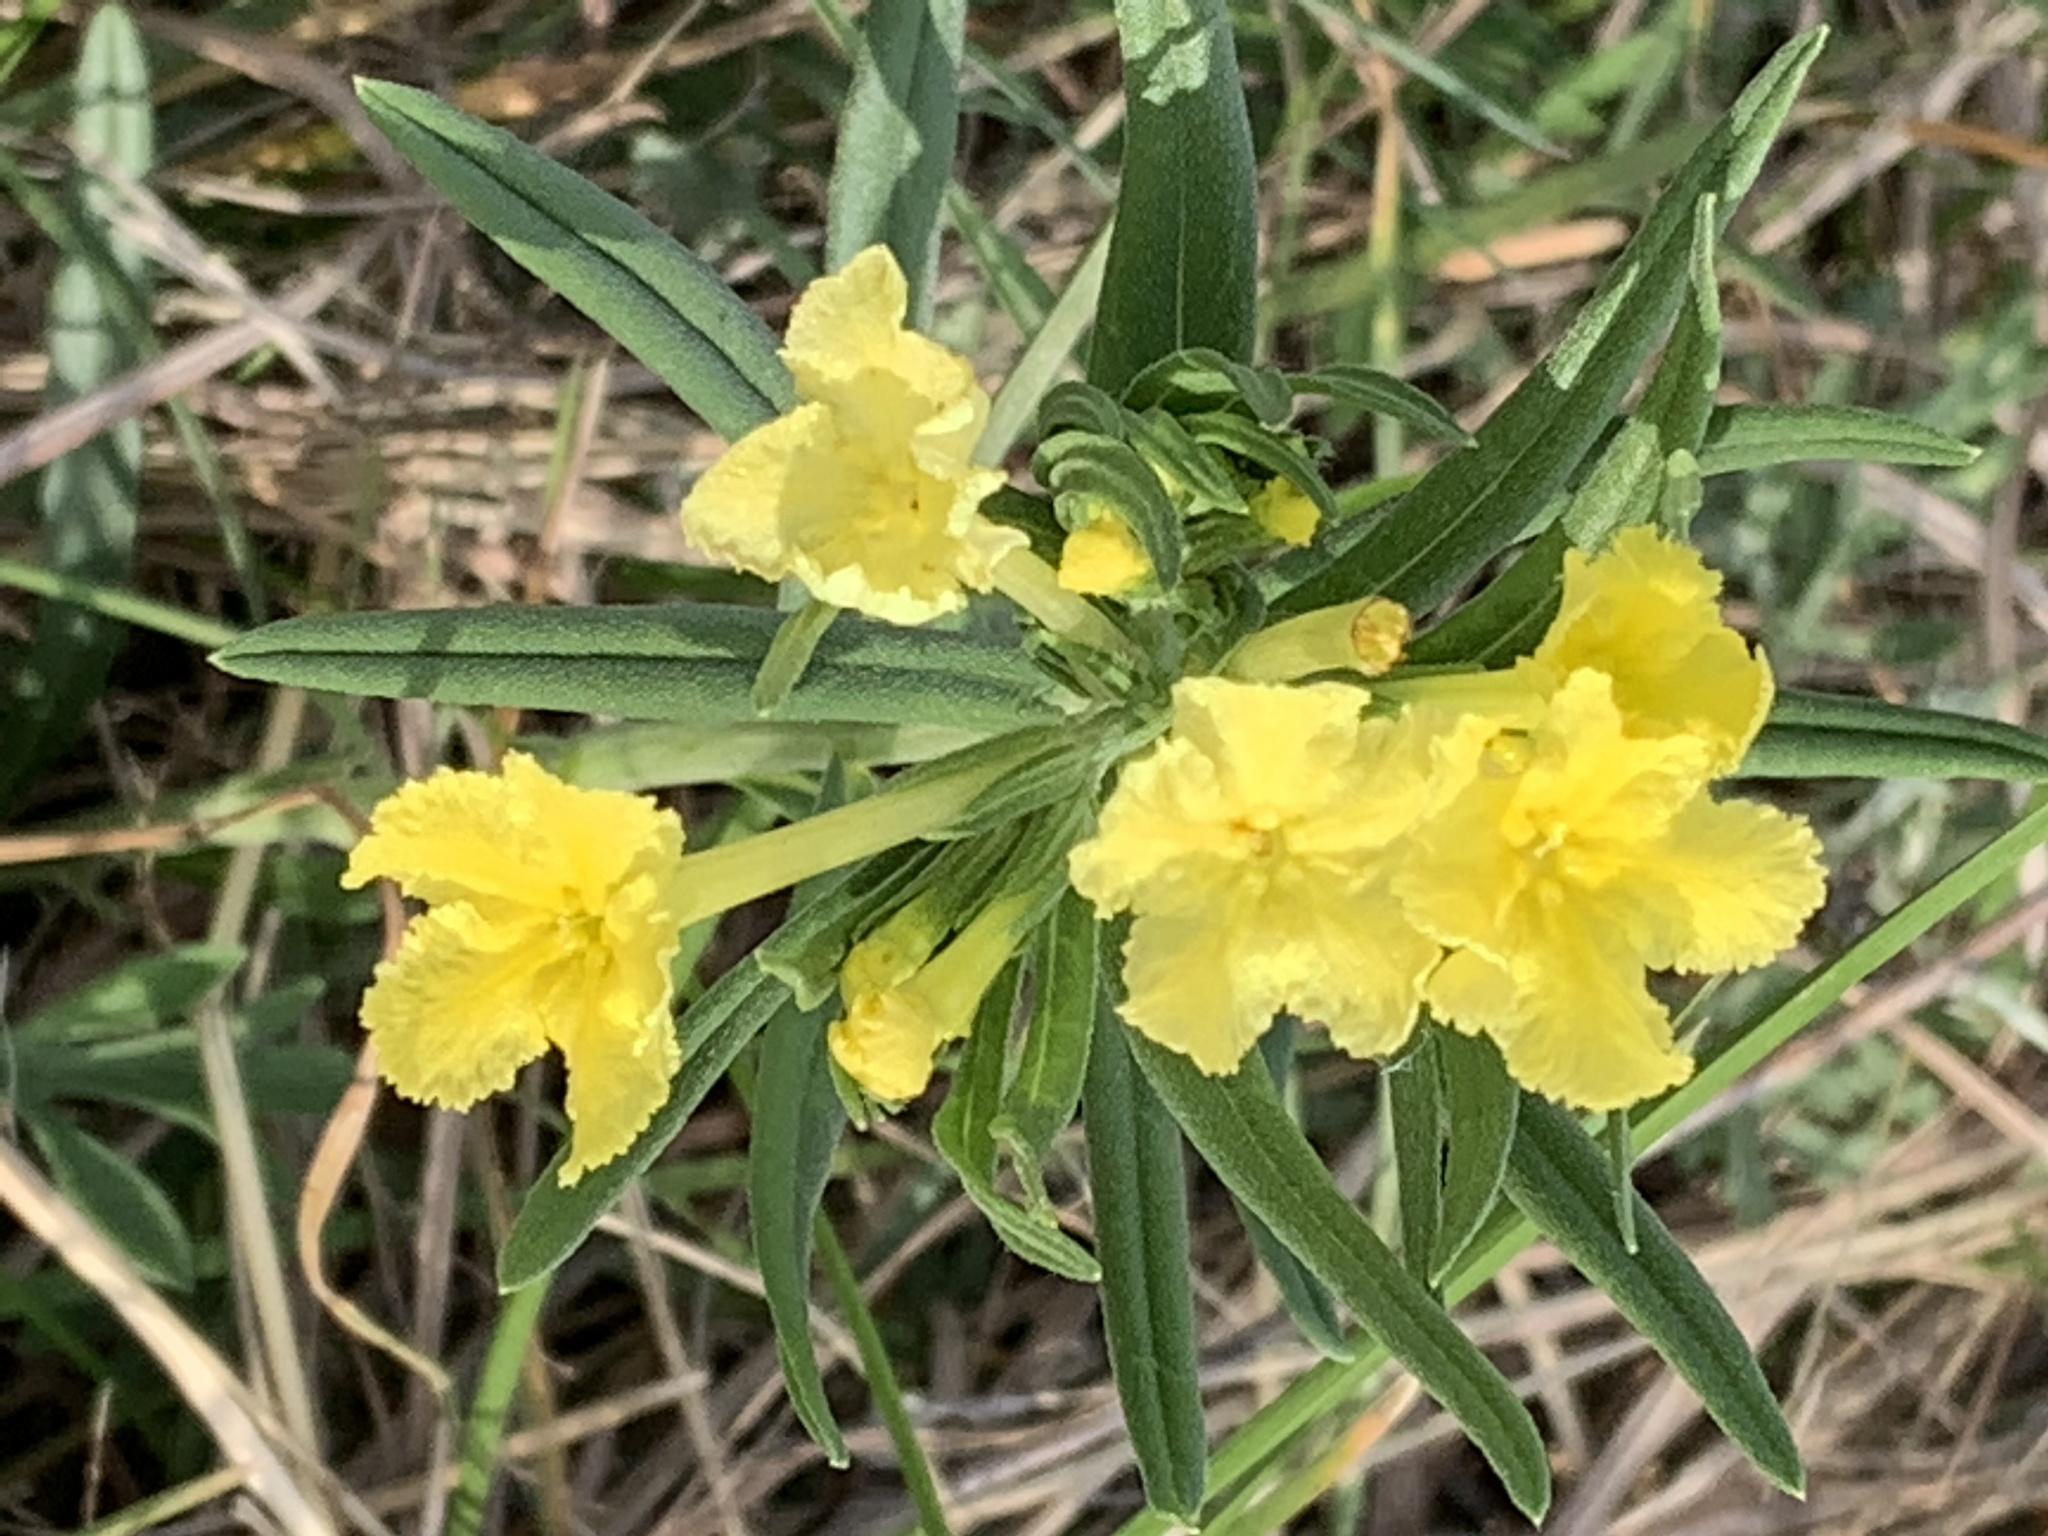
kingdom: Plantae
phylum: Tracheophyta
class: Magnoliopsida
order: Boraginales
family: Boraginaceae
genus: Lithospermum
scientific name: Lithospermum incisum
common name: Fringed gromwell
